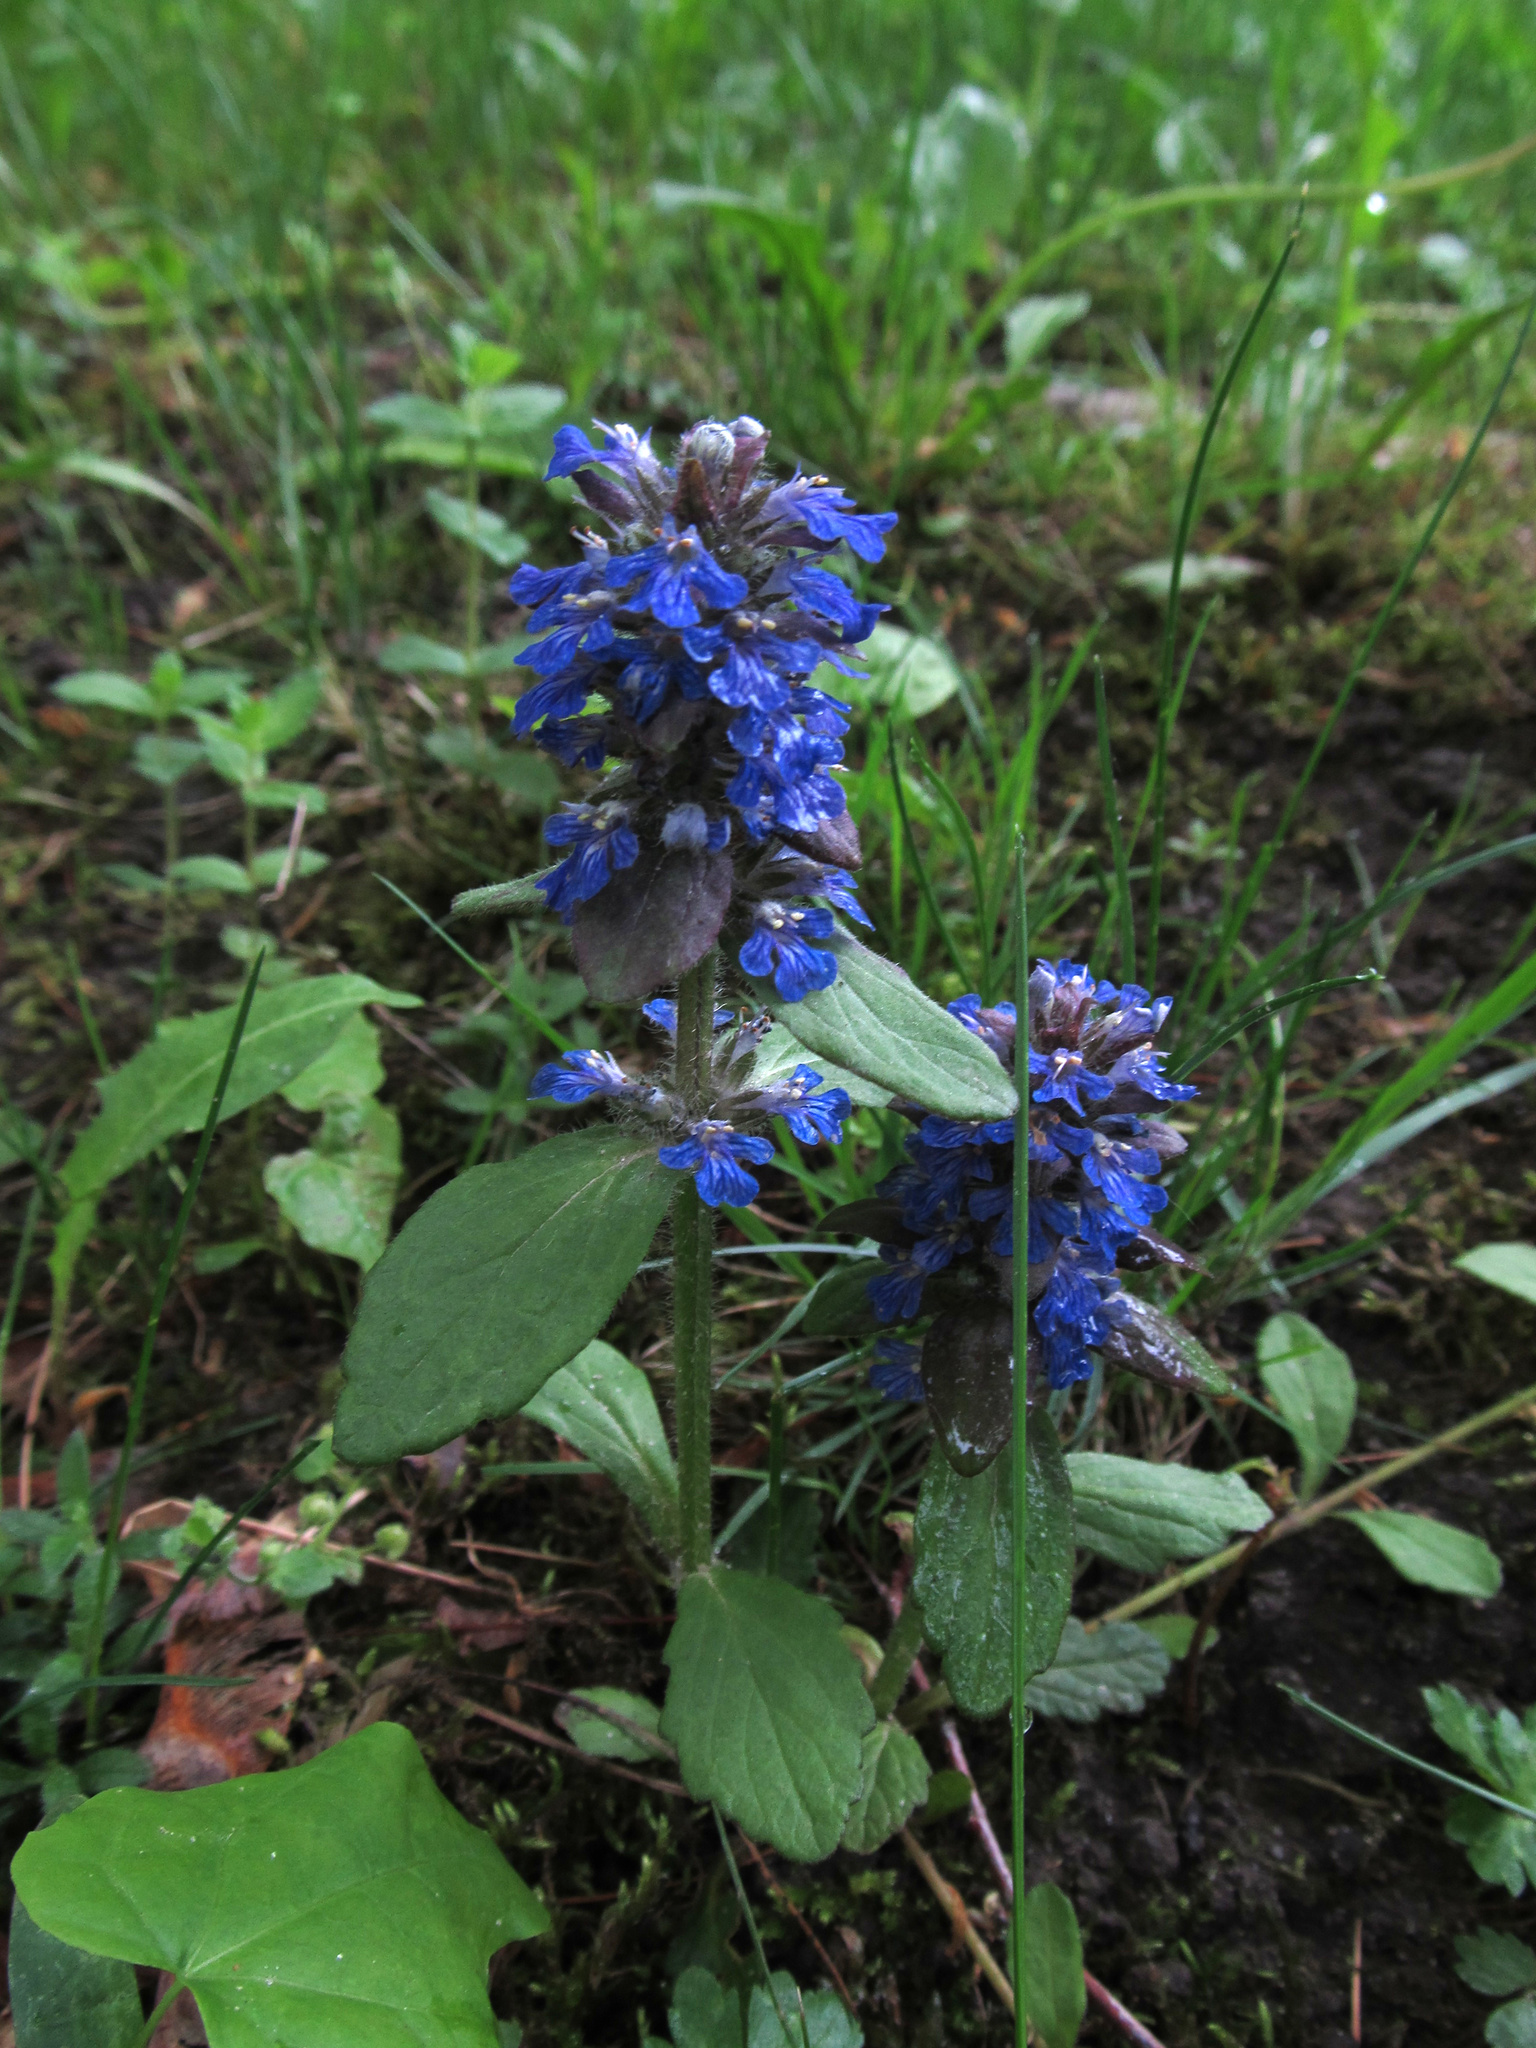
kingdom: Plantae
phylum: Tracheophyta
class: Magnoliopsida
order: Lamiales
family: Lamiaceae
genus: Ajuga
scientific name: Ajuga reptans
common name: Bugle
